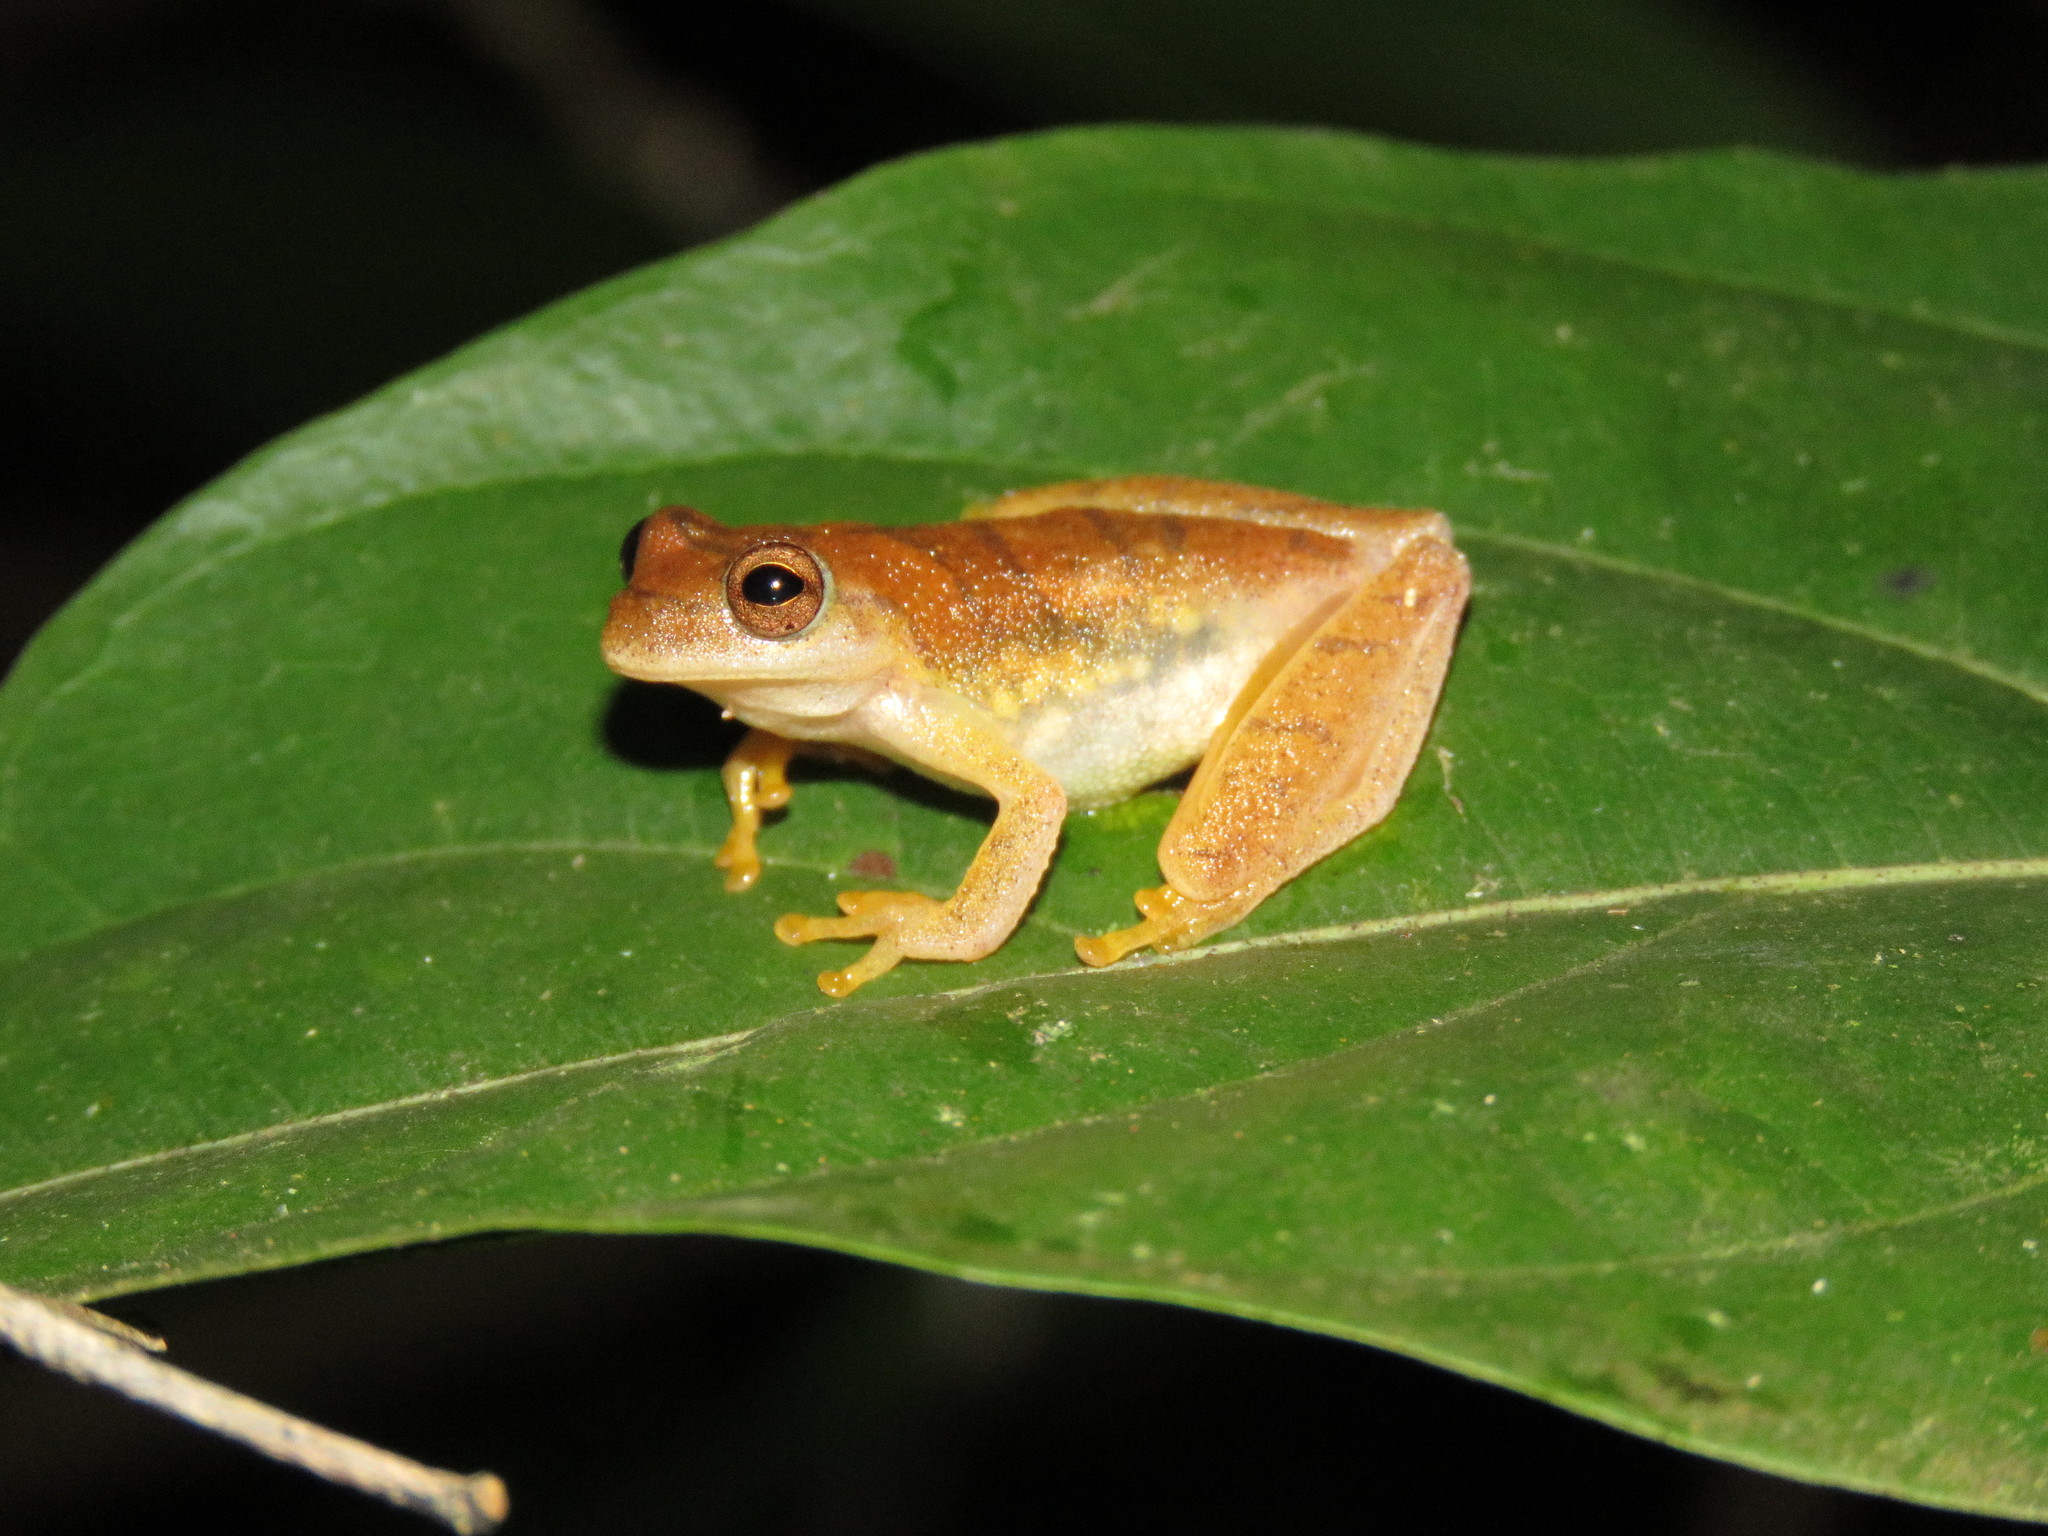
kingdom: Animalia
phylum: Chordata
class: Amphibia
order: Anura
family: Hylidae
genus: Dendropsophus
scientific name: Dendropsophus minutus
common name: Lesser treefrog
